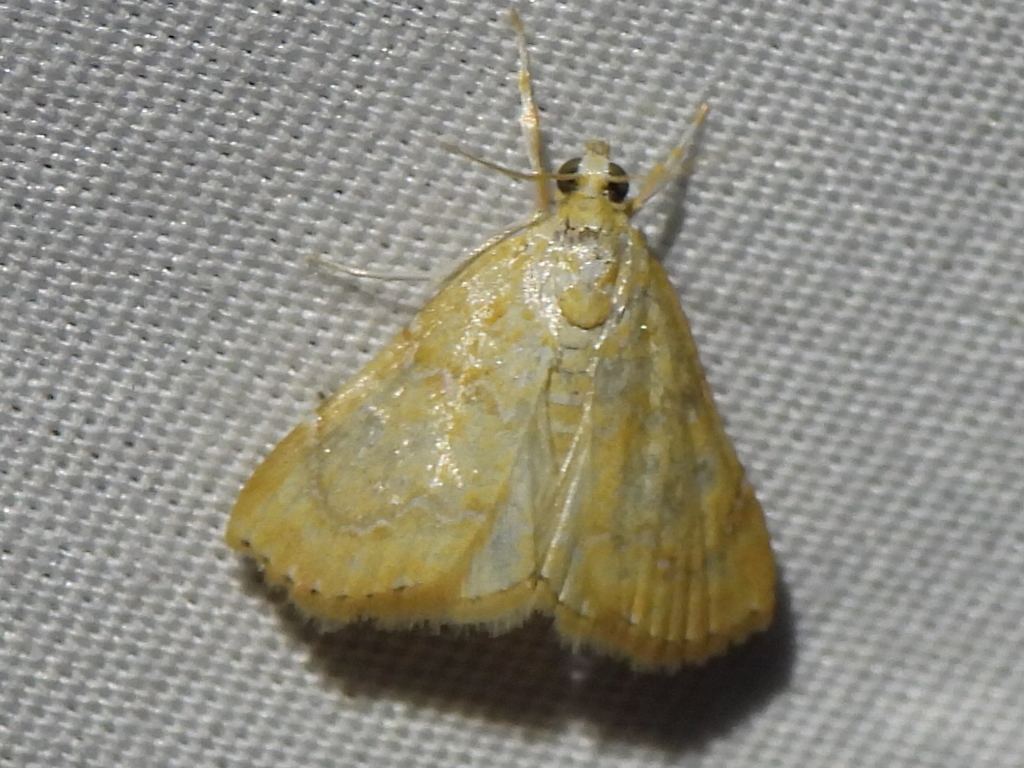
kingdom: Animalia
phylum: Arthropoda
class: Insecta
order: Lepidoptera
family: Crambidae
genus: Glaphyria
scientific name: Glaphyria sesquistrialis
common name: White-roped glaphyria
